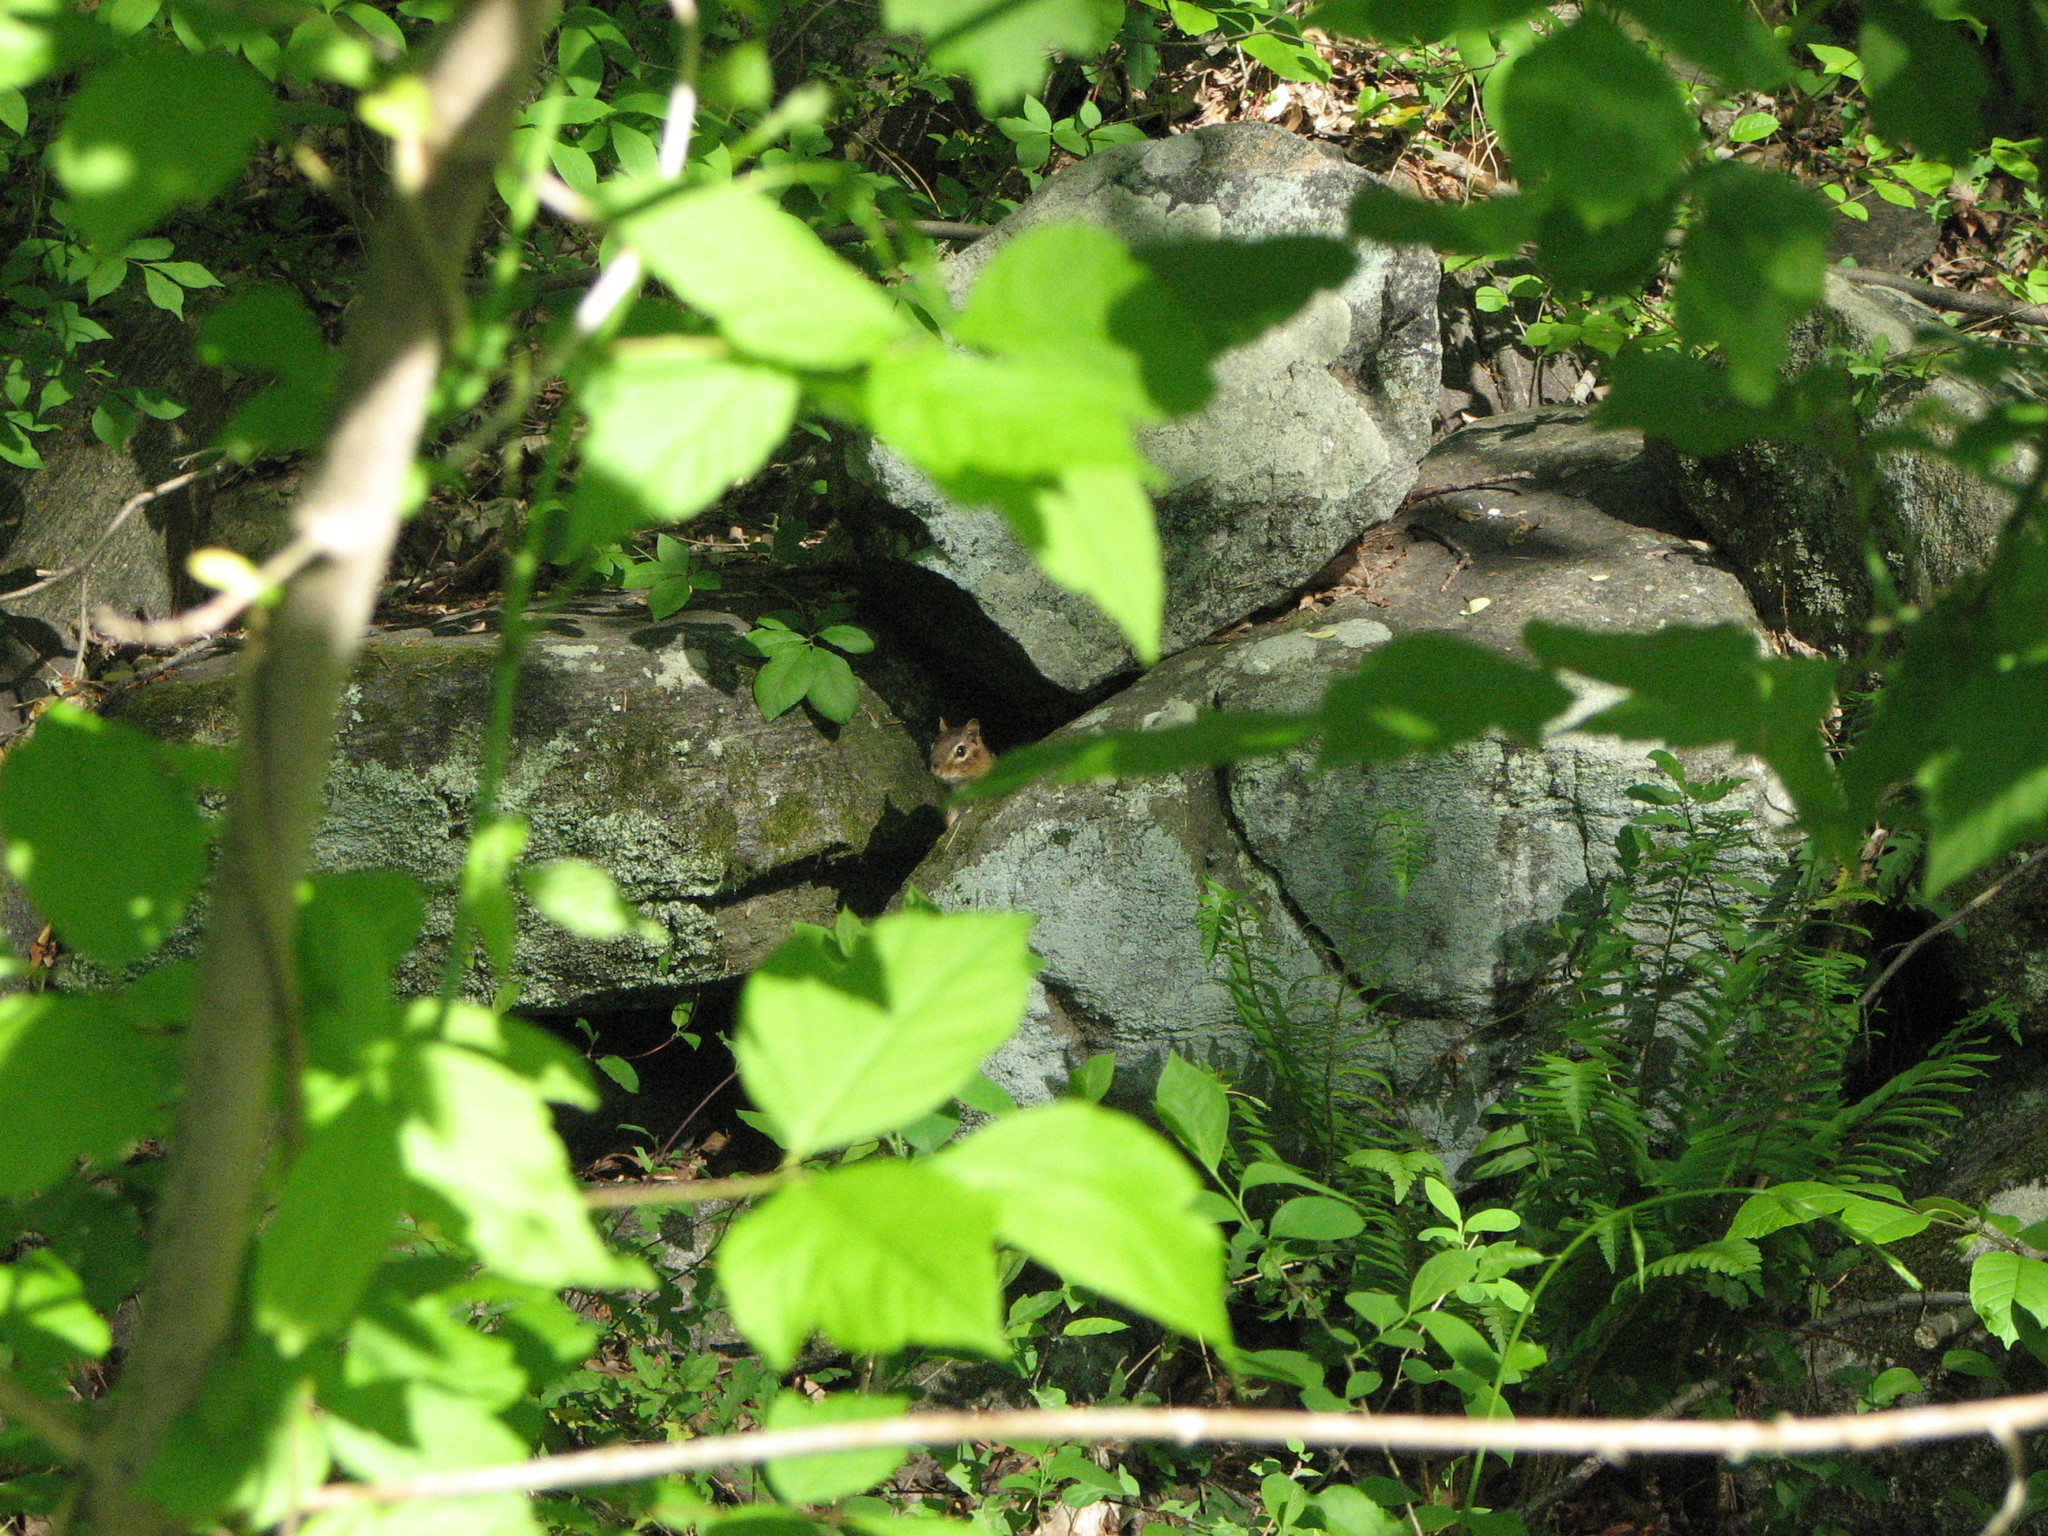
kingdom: Animalia
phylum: Chordata
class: Mammalia
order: Rodentia
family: Sciuridae
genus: Tamias
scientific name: Tamias striatus
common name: Eastern chipmunk
